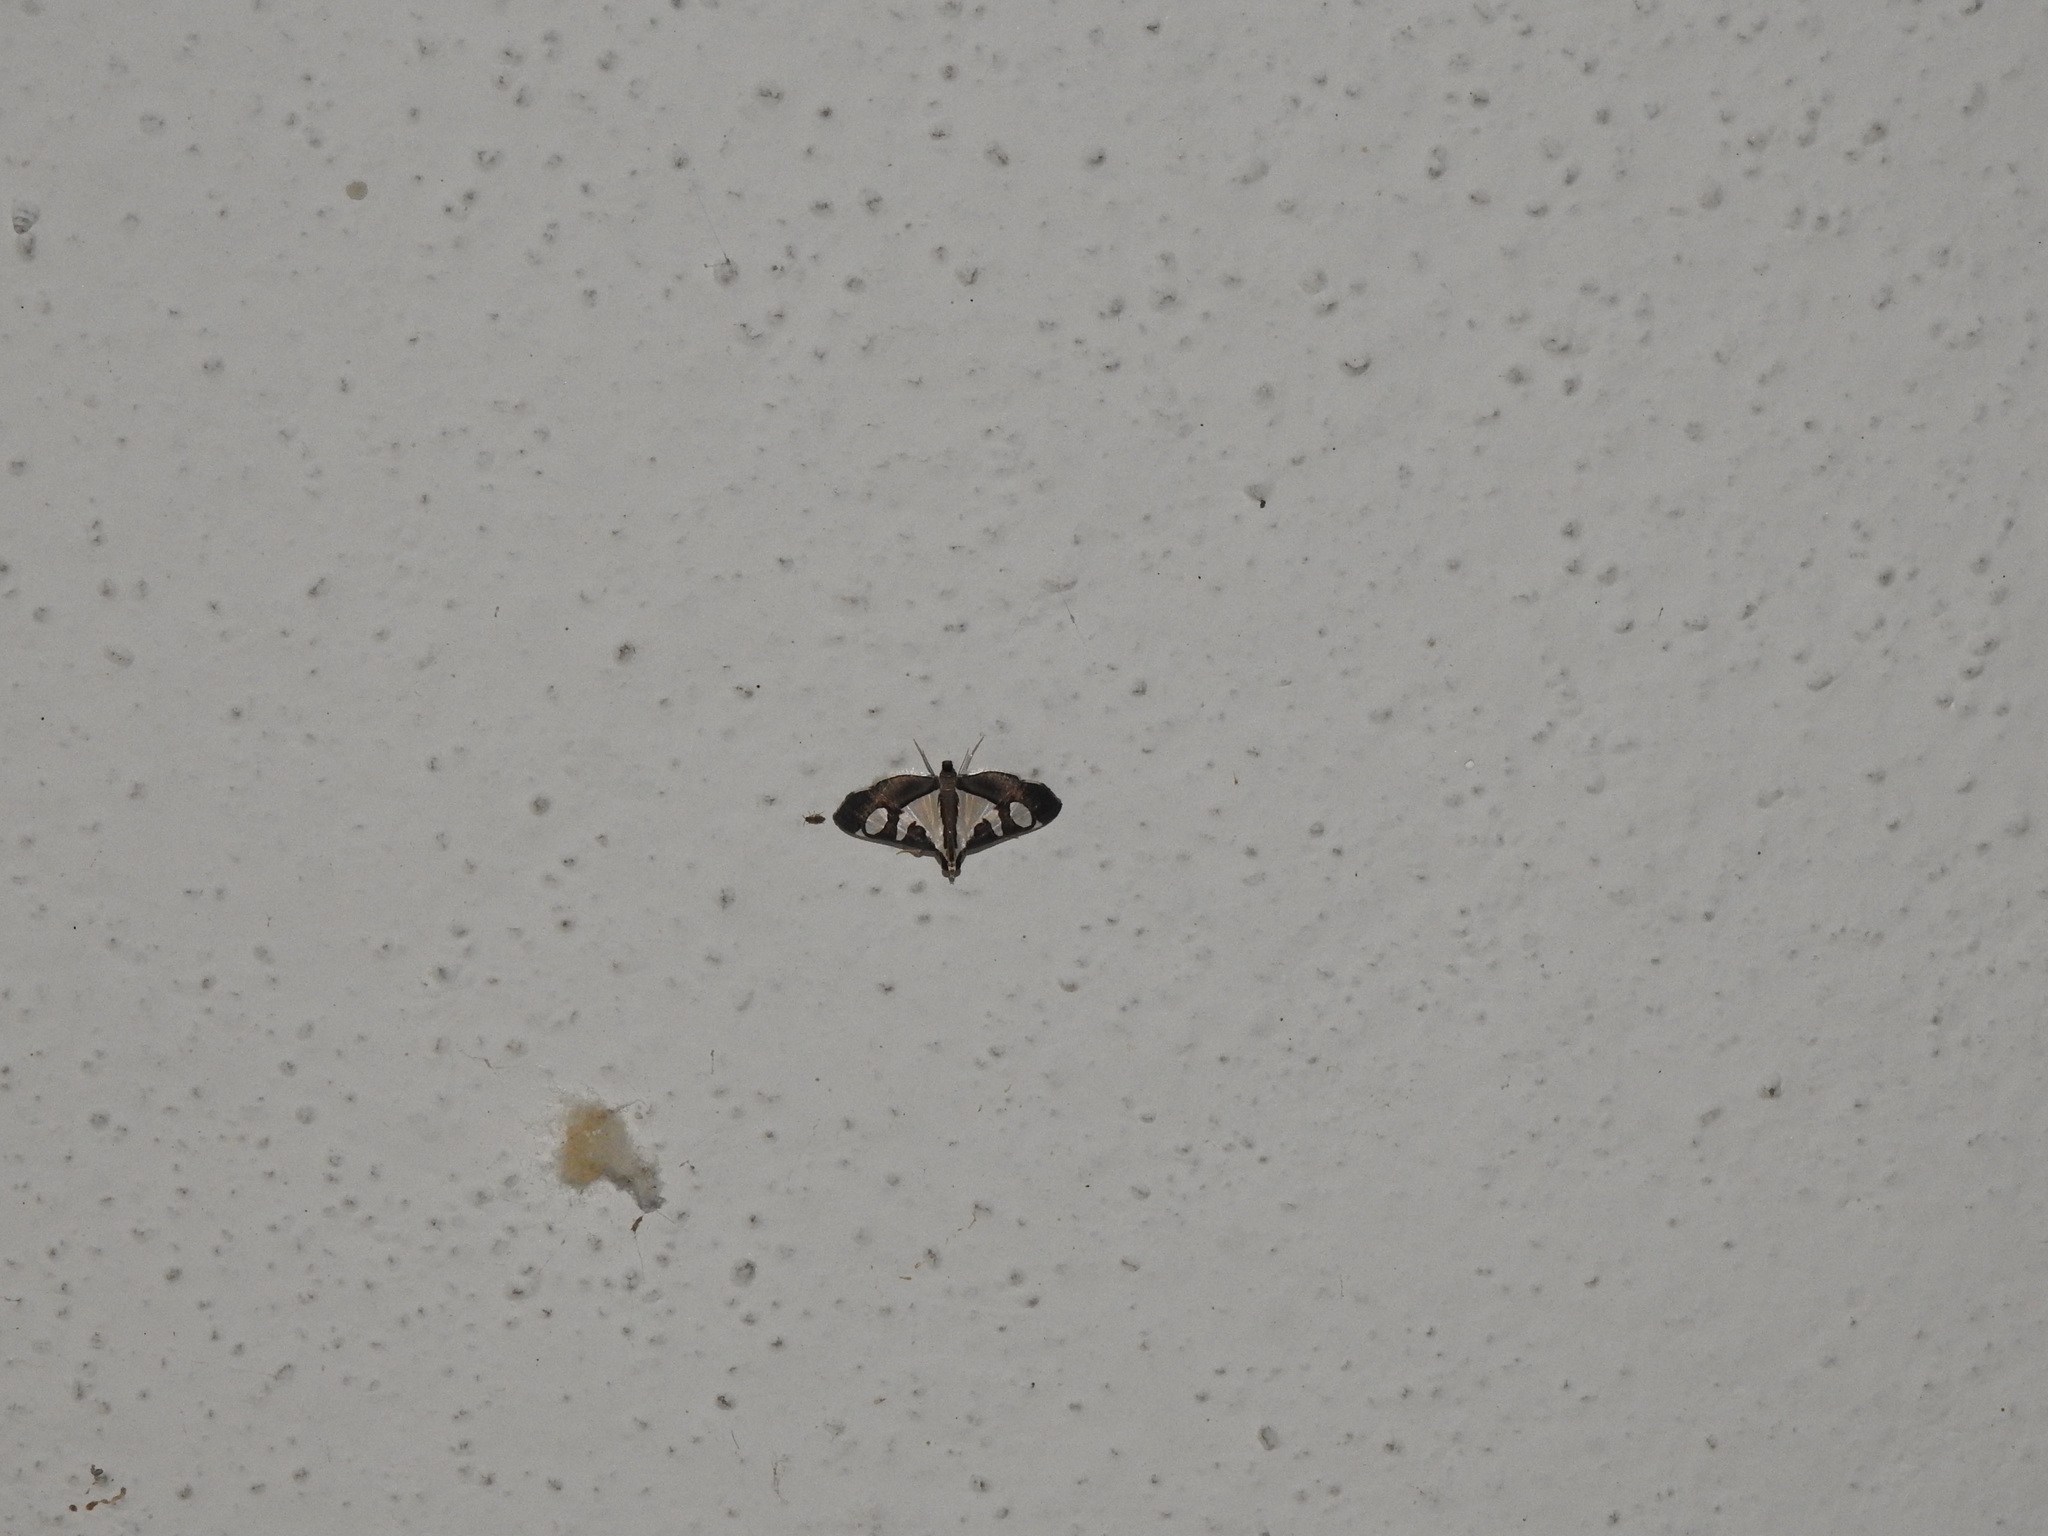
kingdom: Animalia
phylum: Arthropoda
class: Insecta
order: Lepidoptera
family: Crambidae
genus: Glyphodes
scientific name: Glyphodes bicolor
